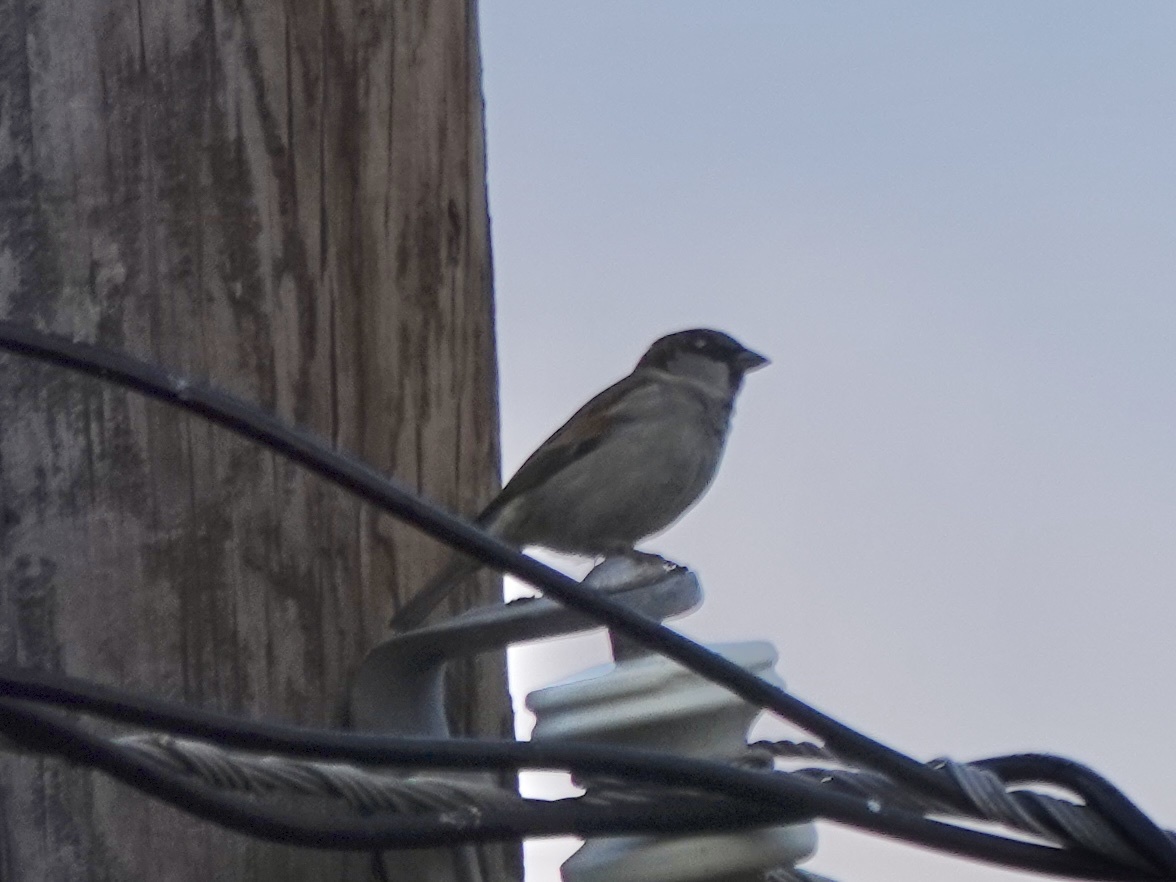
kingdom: Animalia
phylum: Chordata
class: Aves
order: Passeriformes
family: Passeridae
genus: Passer
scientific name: Passer domesticus
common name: House sparrow
